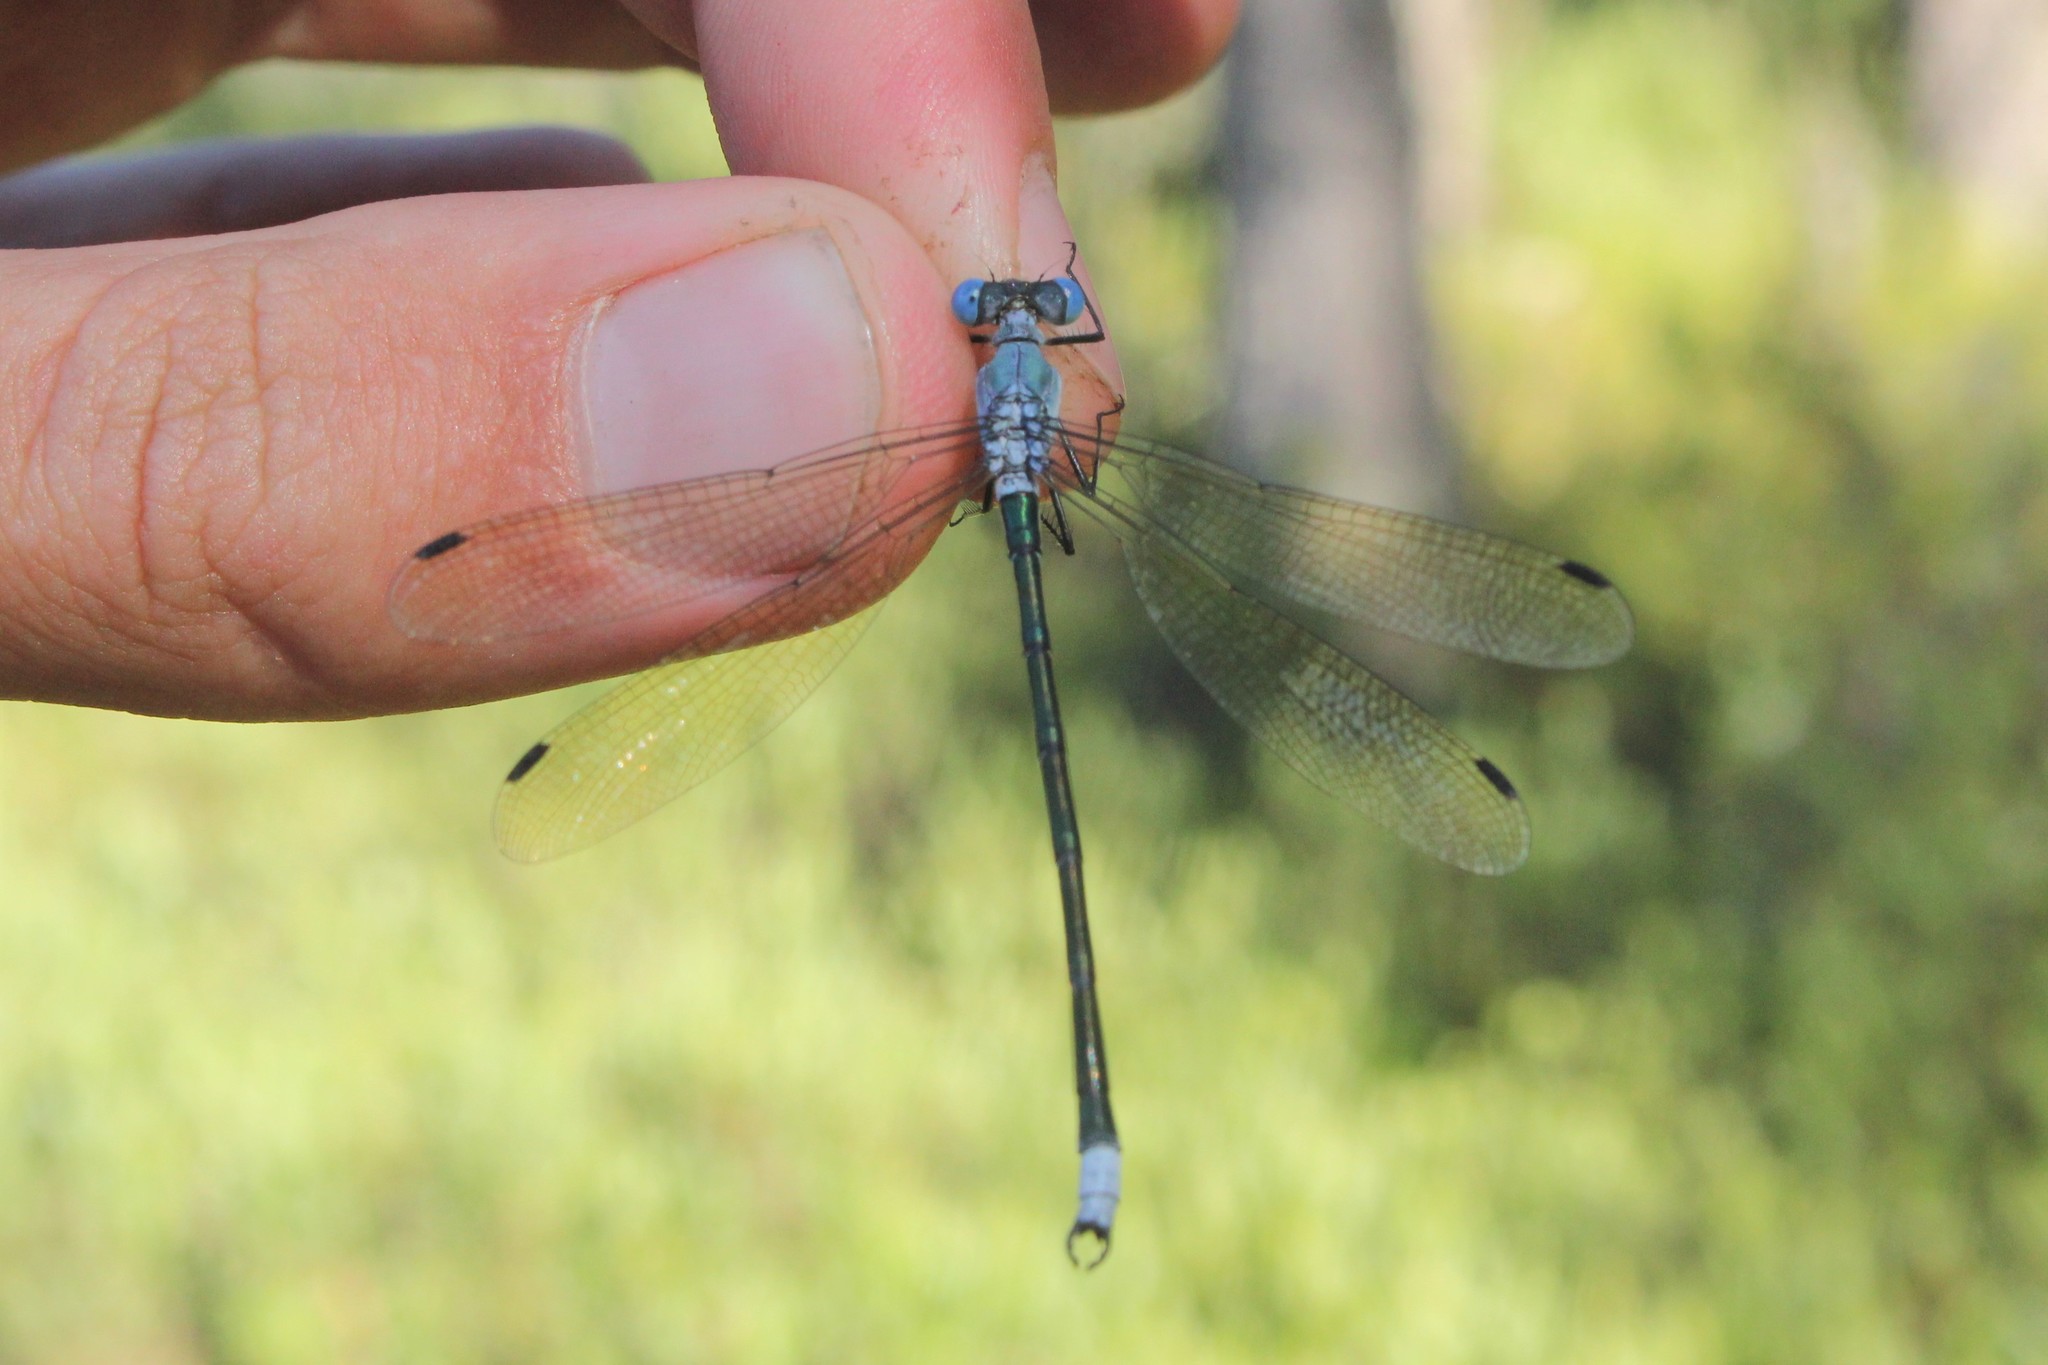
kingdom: Animalia
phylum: Arthropoda
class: Insecta
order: Odonata
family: Lestidae
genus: Lestes
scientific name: Lestes eurinus
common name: Amber-winged spreadwing
